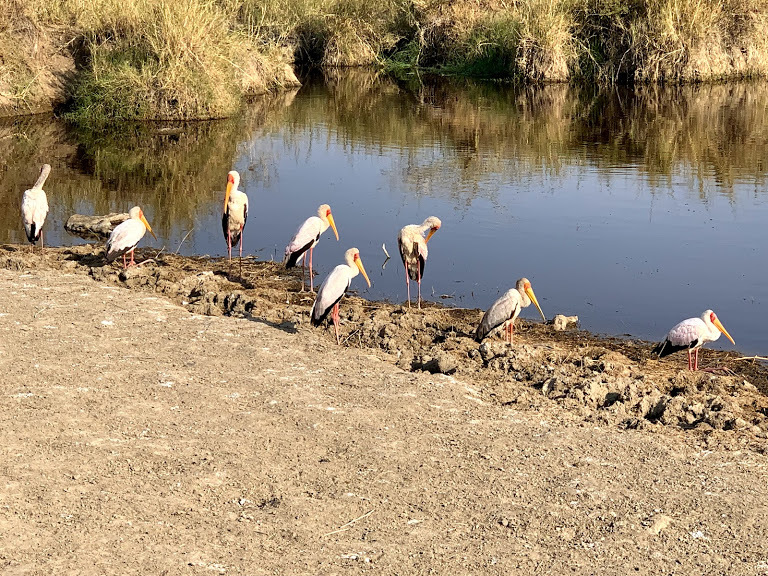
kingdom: Animalia
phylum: Chordata
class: Aves
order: Ciconiiformes
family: Ciconiidae
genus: Mycteria
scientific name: Mycteria ibis
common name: Yellow-billed stork
